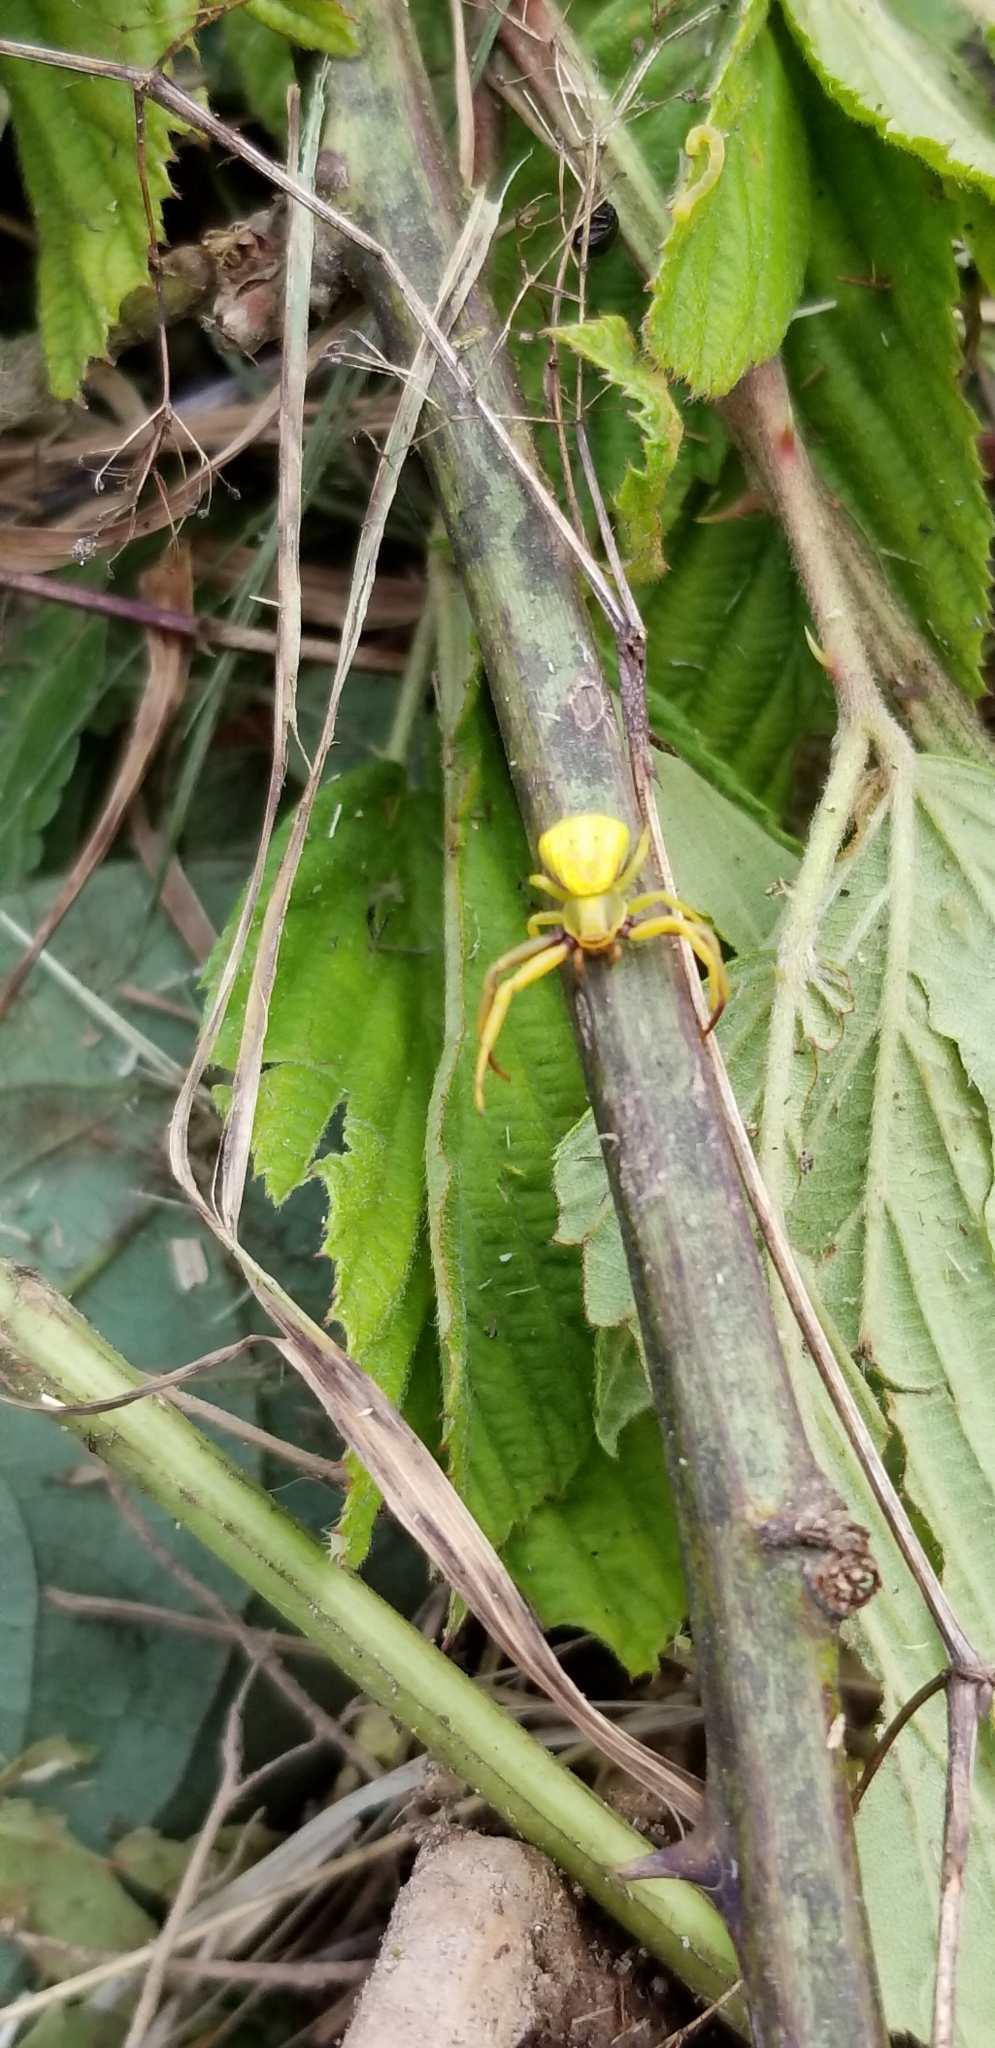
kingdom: Animalia
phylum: Arthropoda
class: Arachnida
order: Araneae
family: Thomisidae
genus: Misumenoides
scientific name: Misumenoides formosipes
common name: White-banded crab spider
